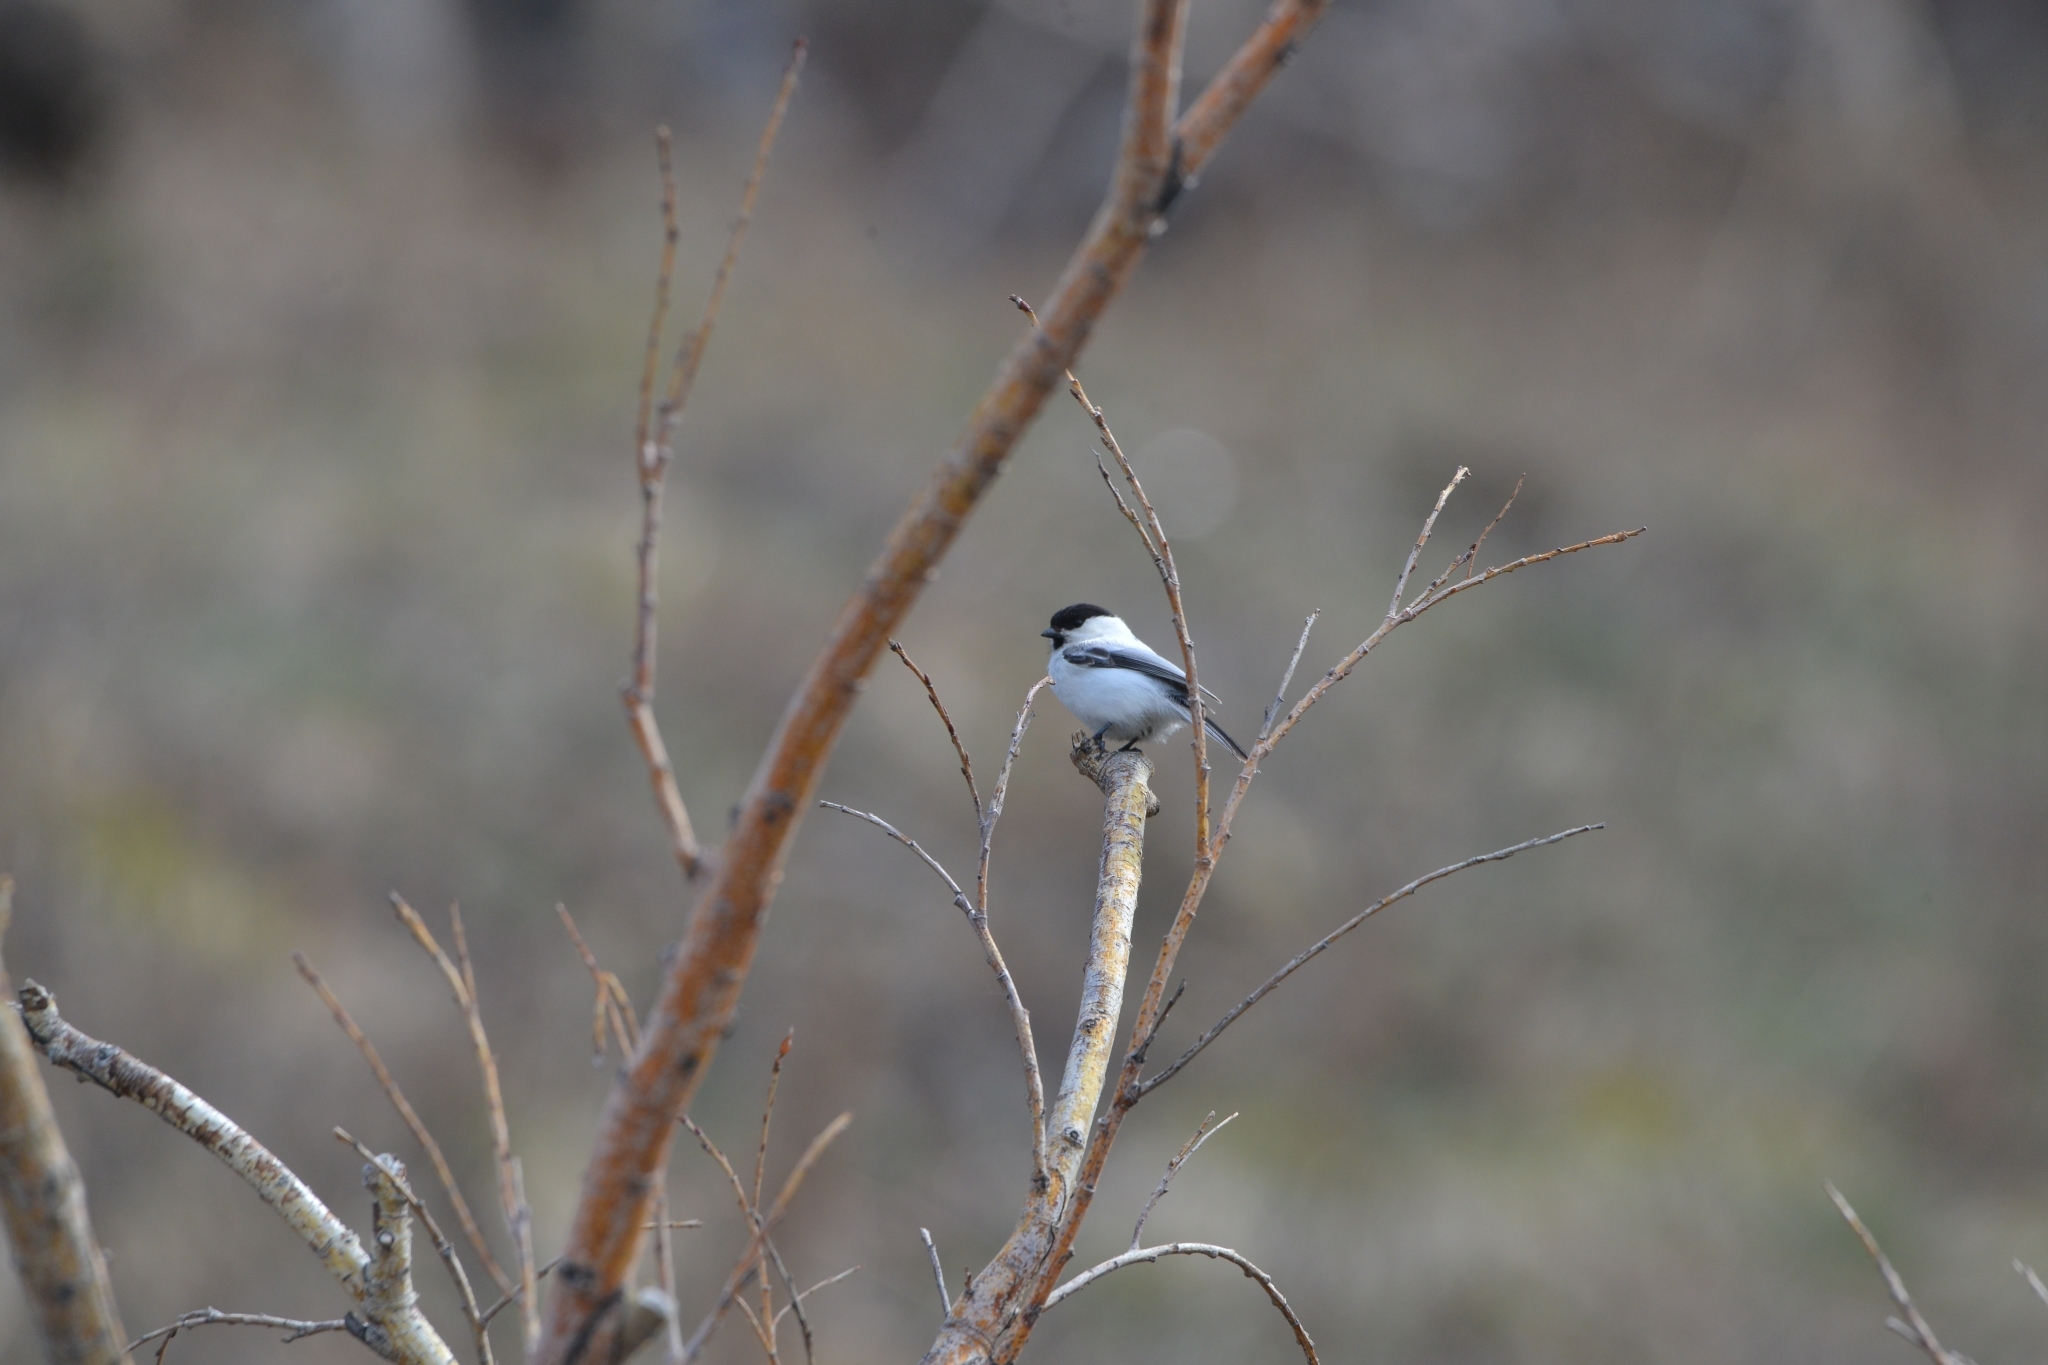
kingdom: Animalia
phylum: Chordata
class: Aves
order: Passeriformes
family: Paridae
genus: Poecile
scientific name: Poecile montanus
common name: Willow tit
